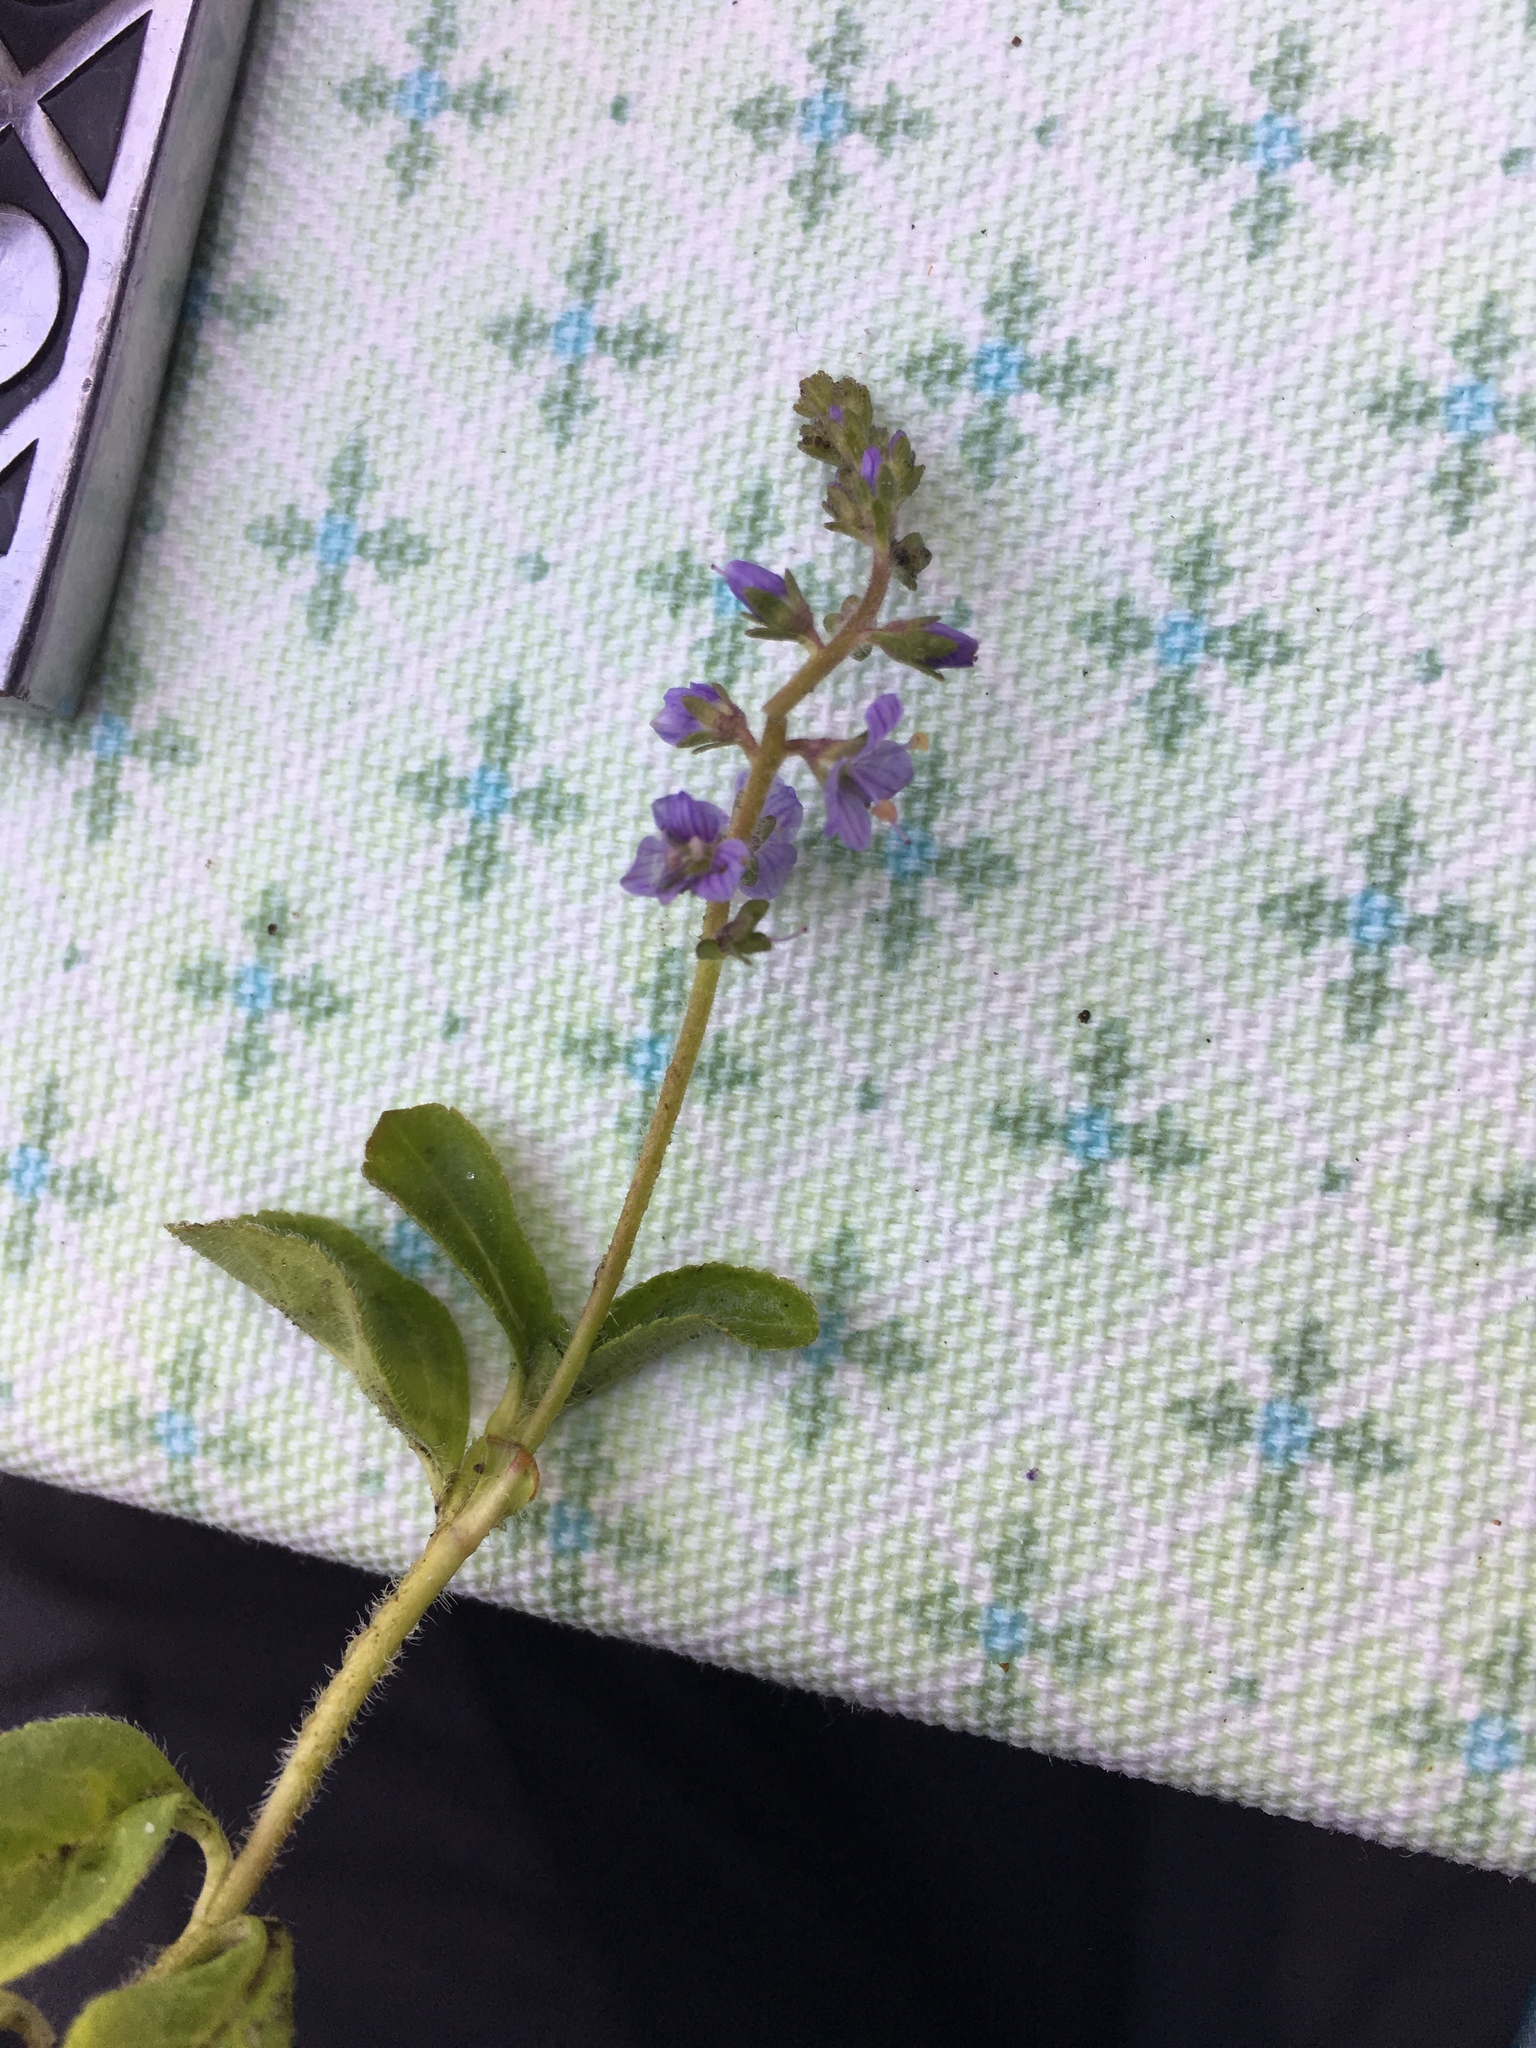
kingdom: Plantae
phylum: Tracheophyta
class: Magnoliopsida
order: Lamiales
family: Plantaginaceae
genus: Veronica
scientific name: Veronica officinalis
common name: Common speedwell
